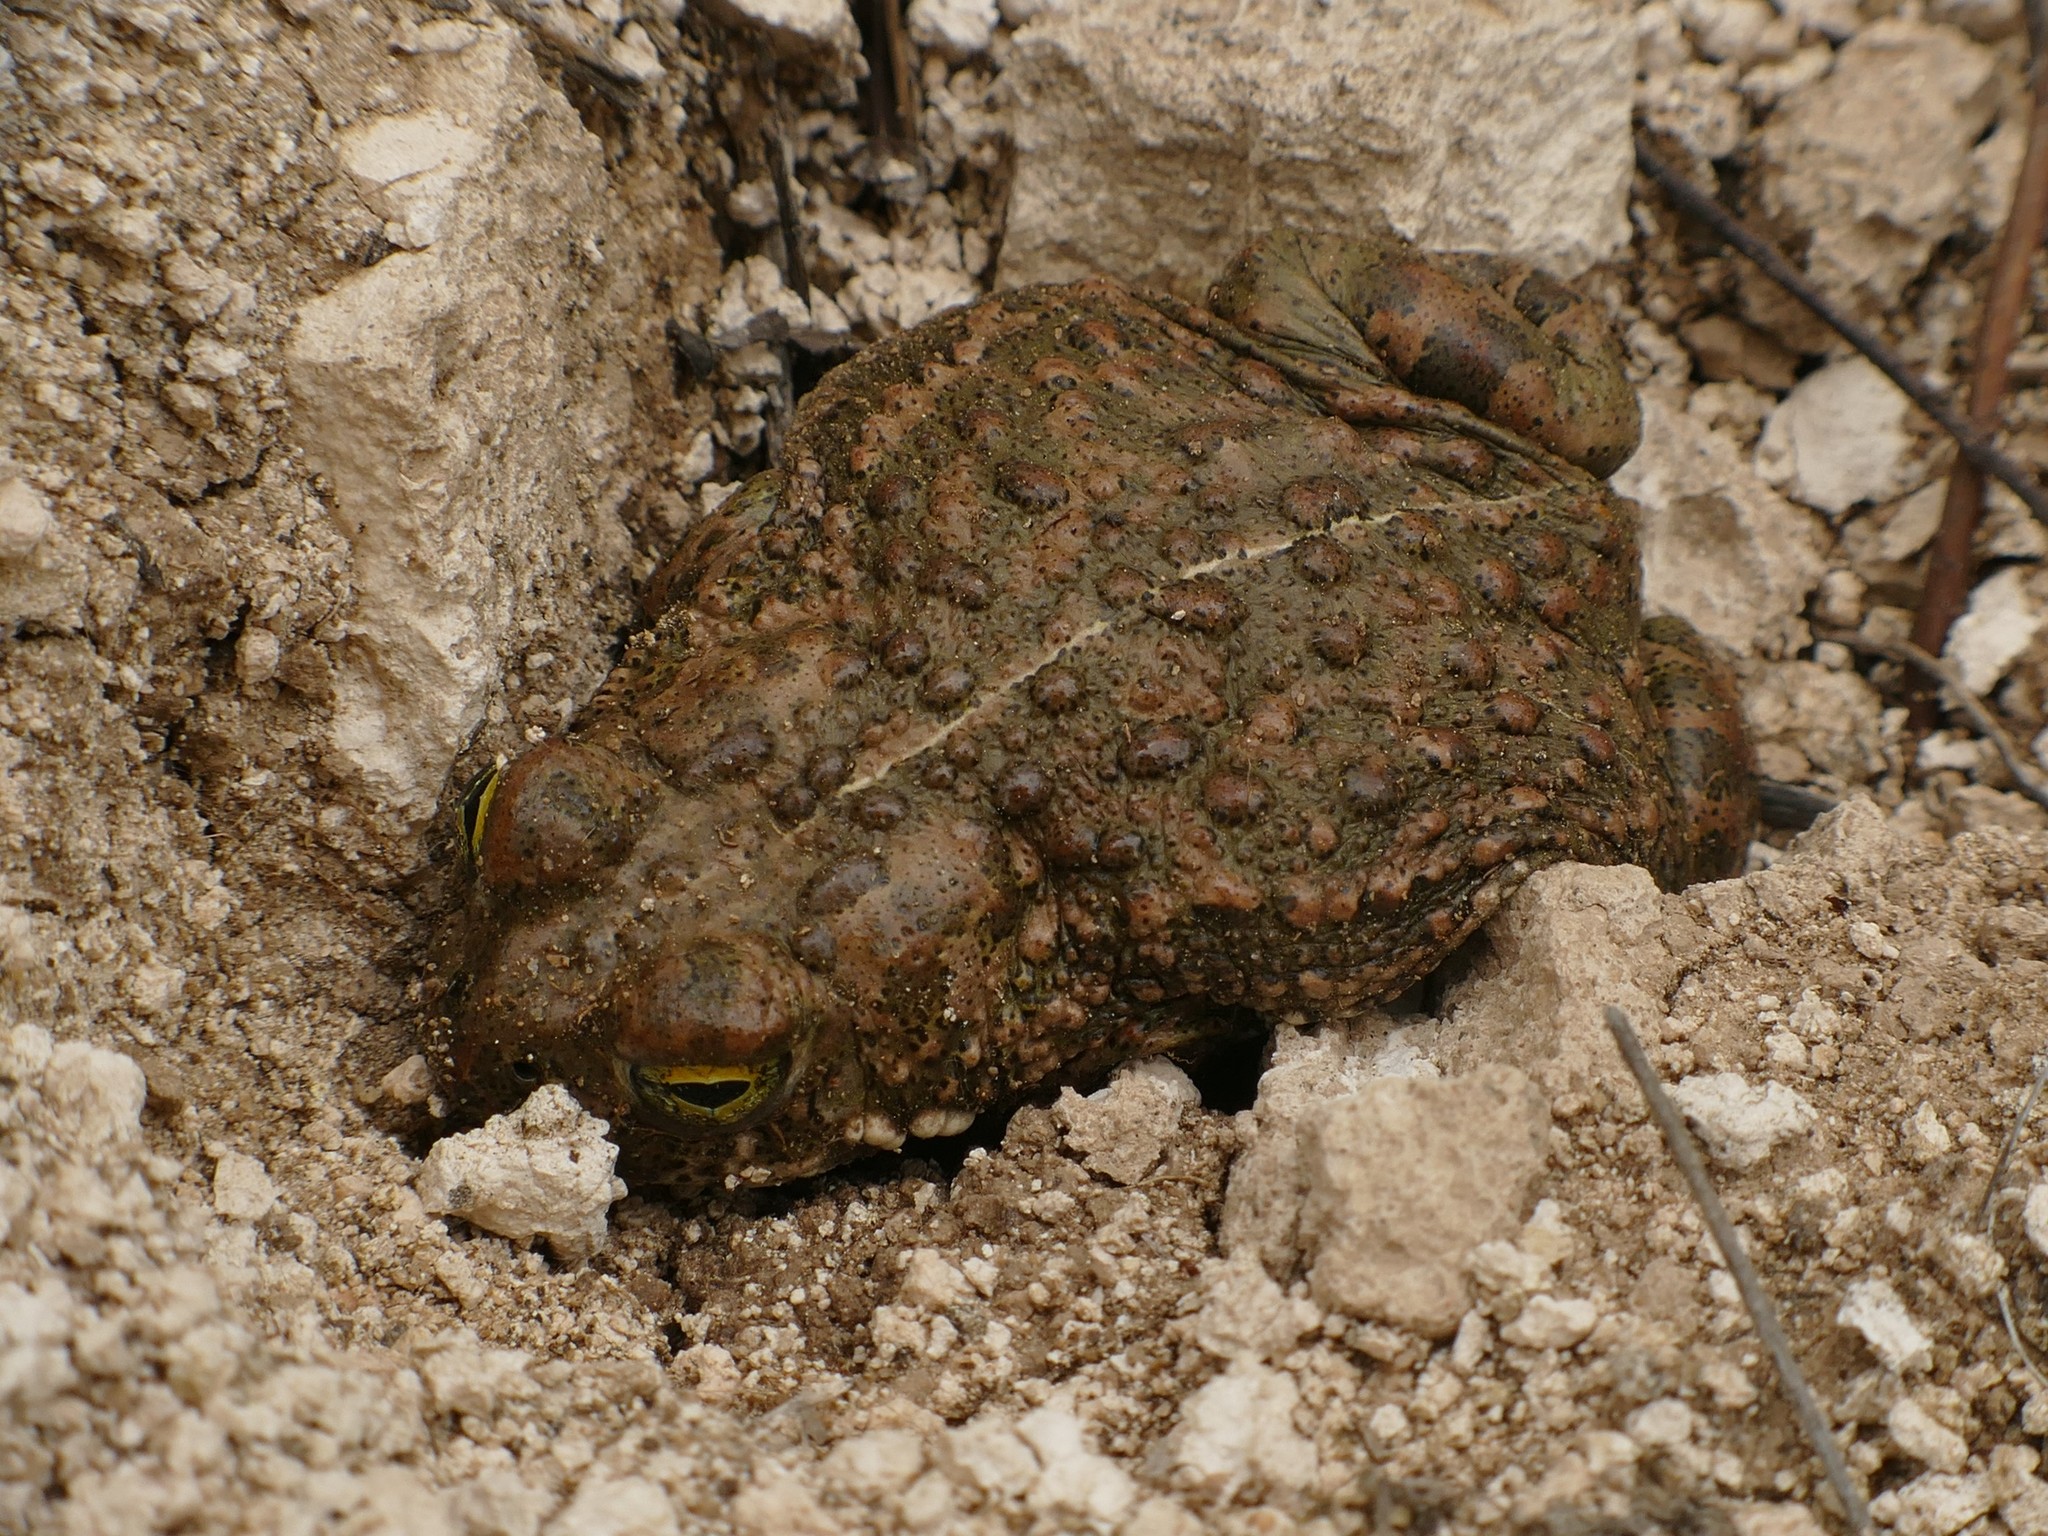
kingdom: Animalia
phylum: Chordata
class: Amphibia
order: Anura
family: Bufonidae
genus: Epidalea
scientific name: Epidalea calamita
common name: Natterjack toad
